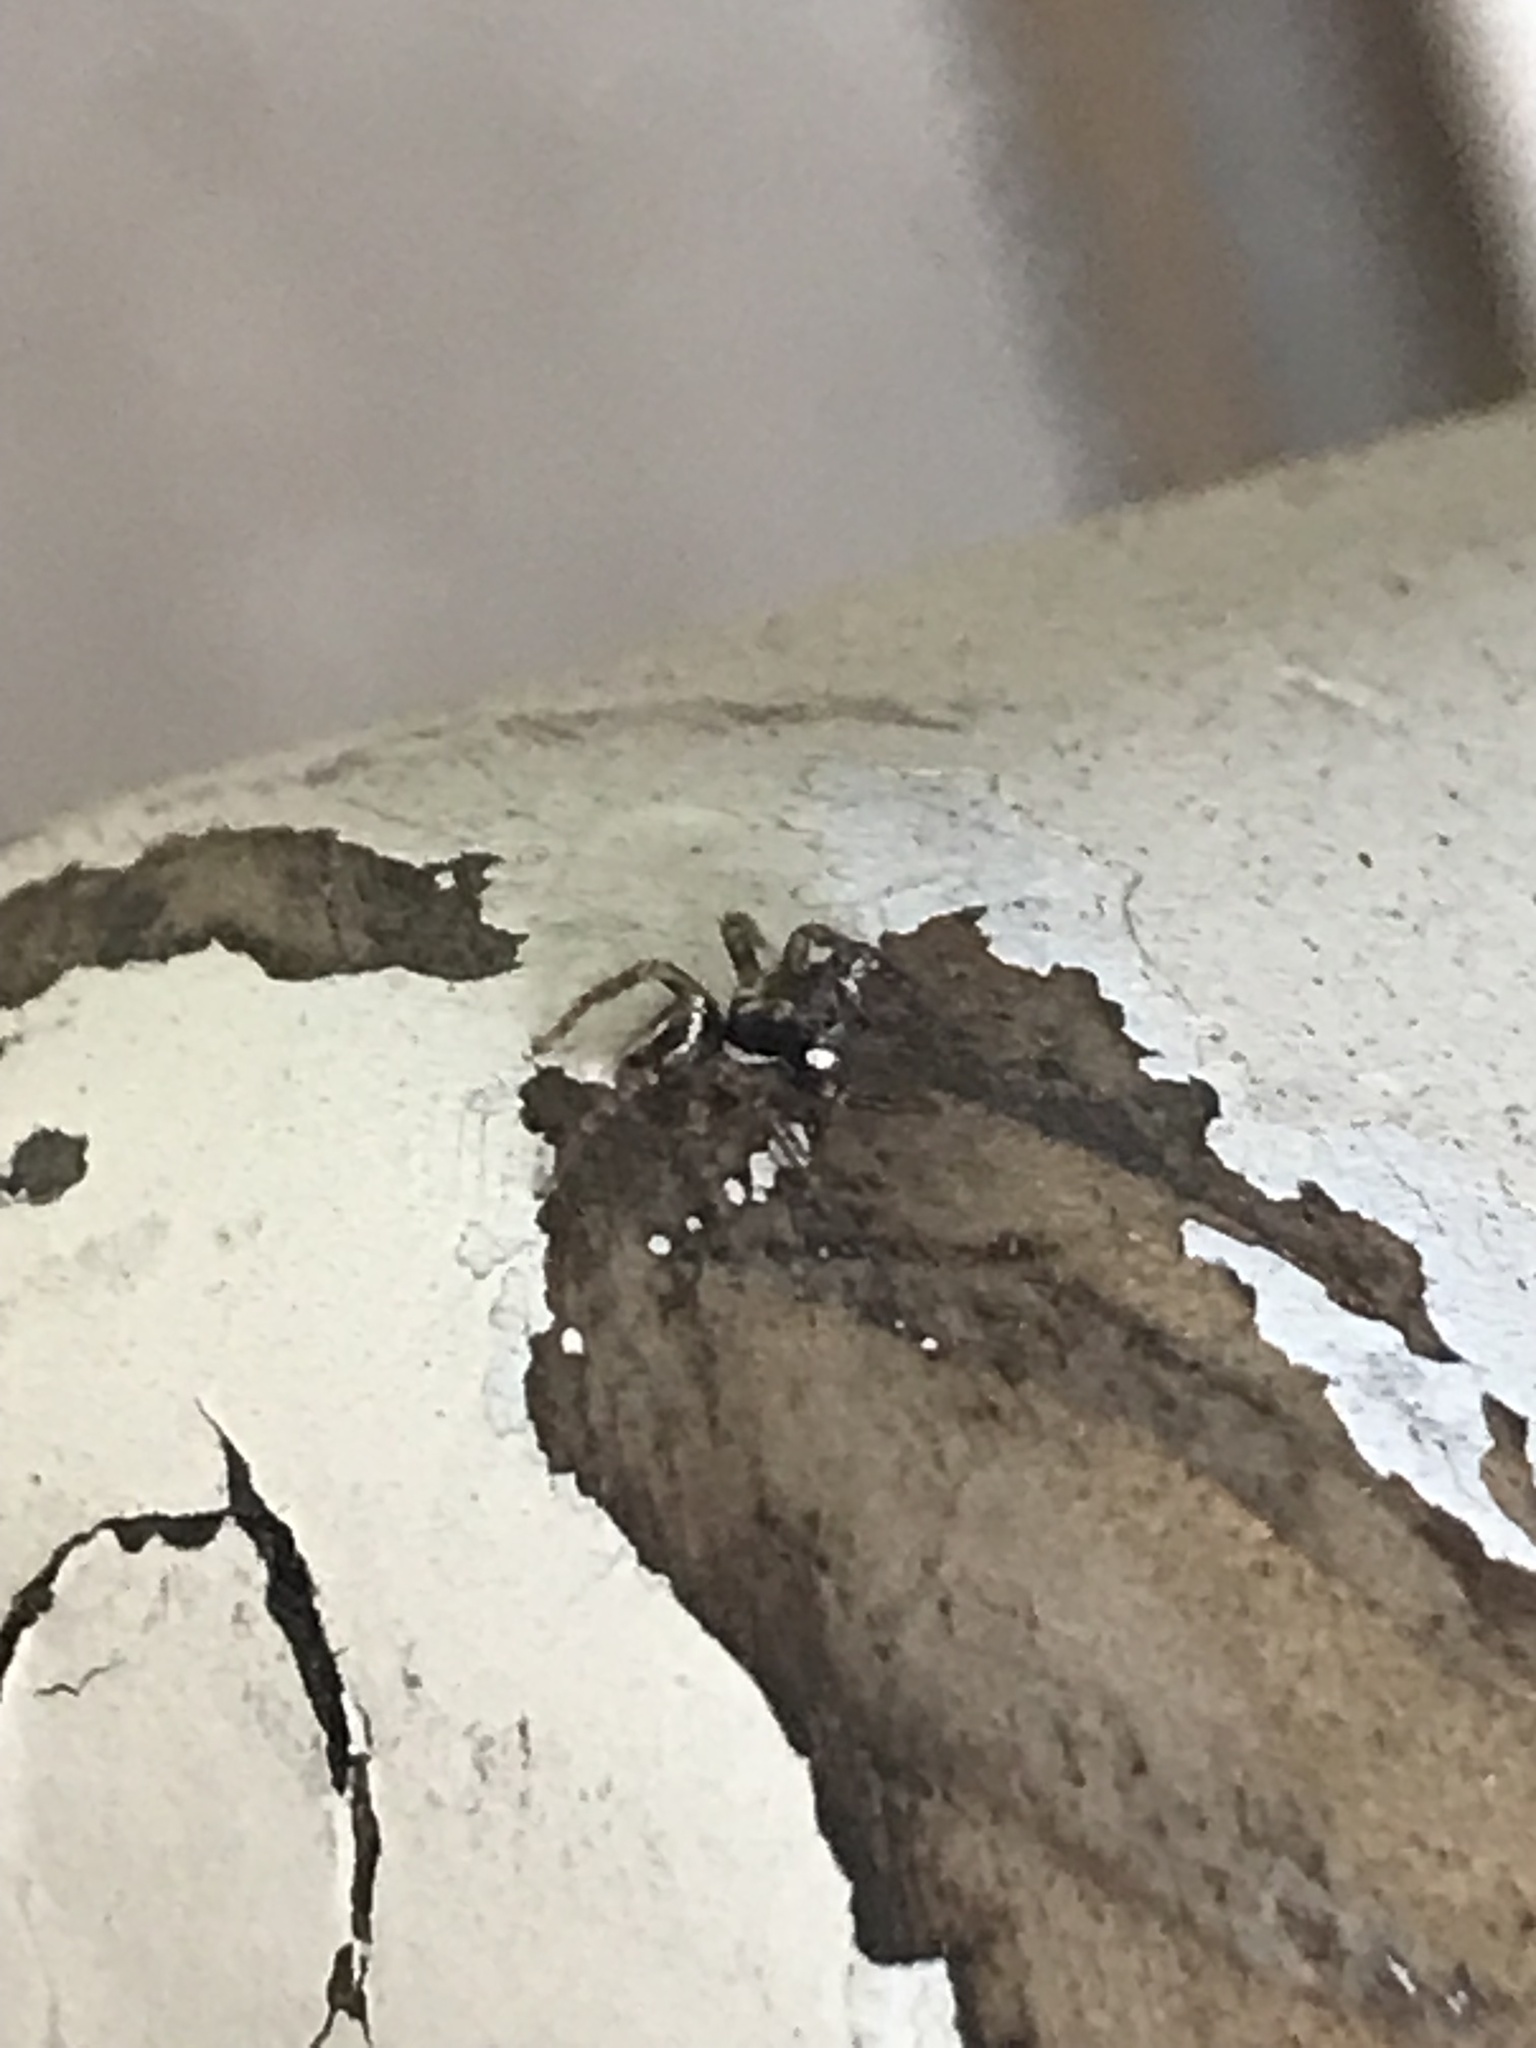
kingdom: Animalia
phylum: Arthropoda
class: Arachnida
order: Araneae
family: Salticidae
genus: Anasaitis
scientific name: Anasaitis canosa
